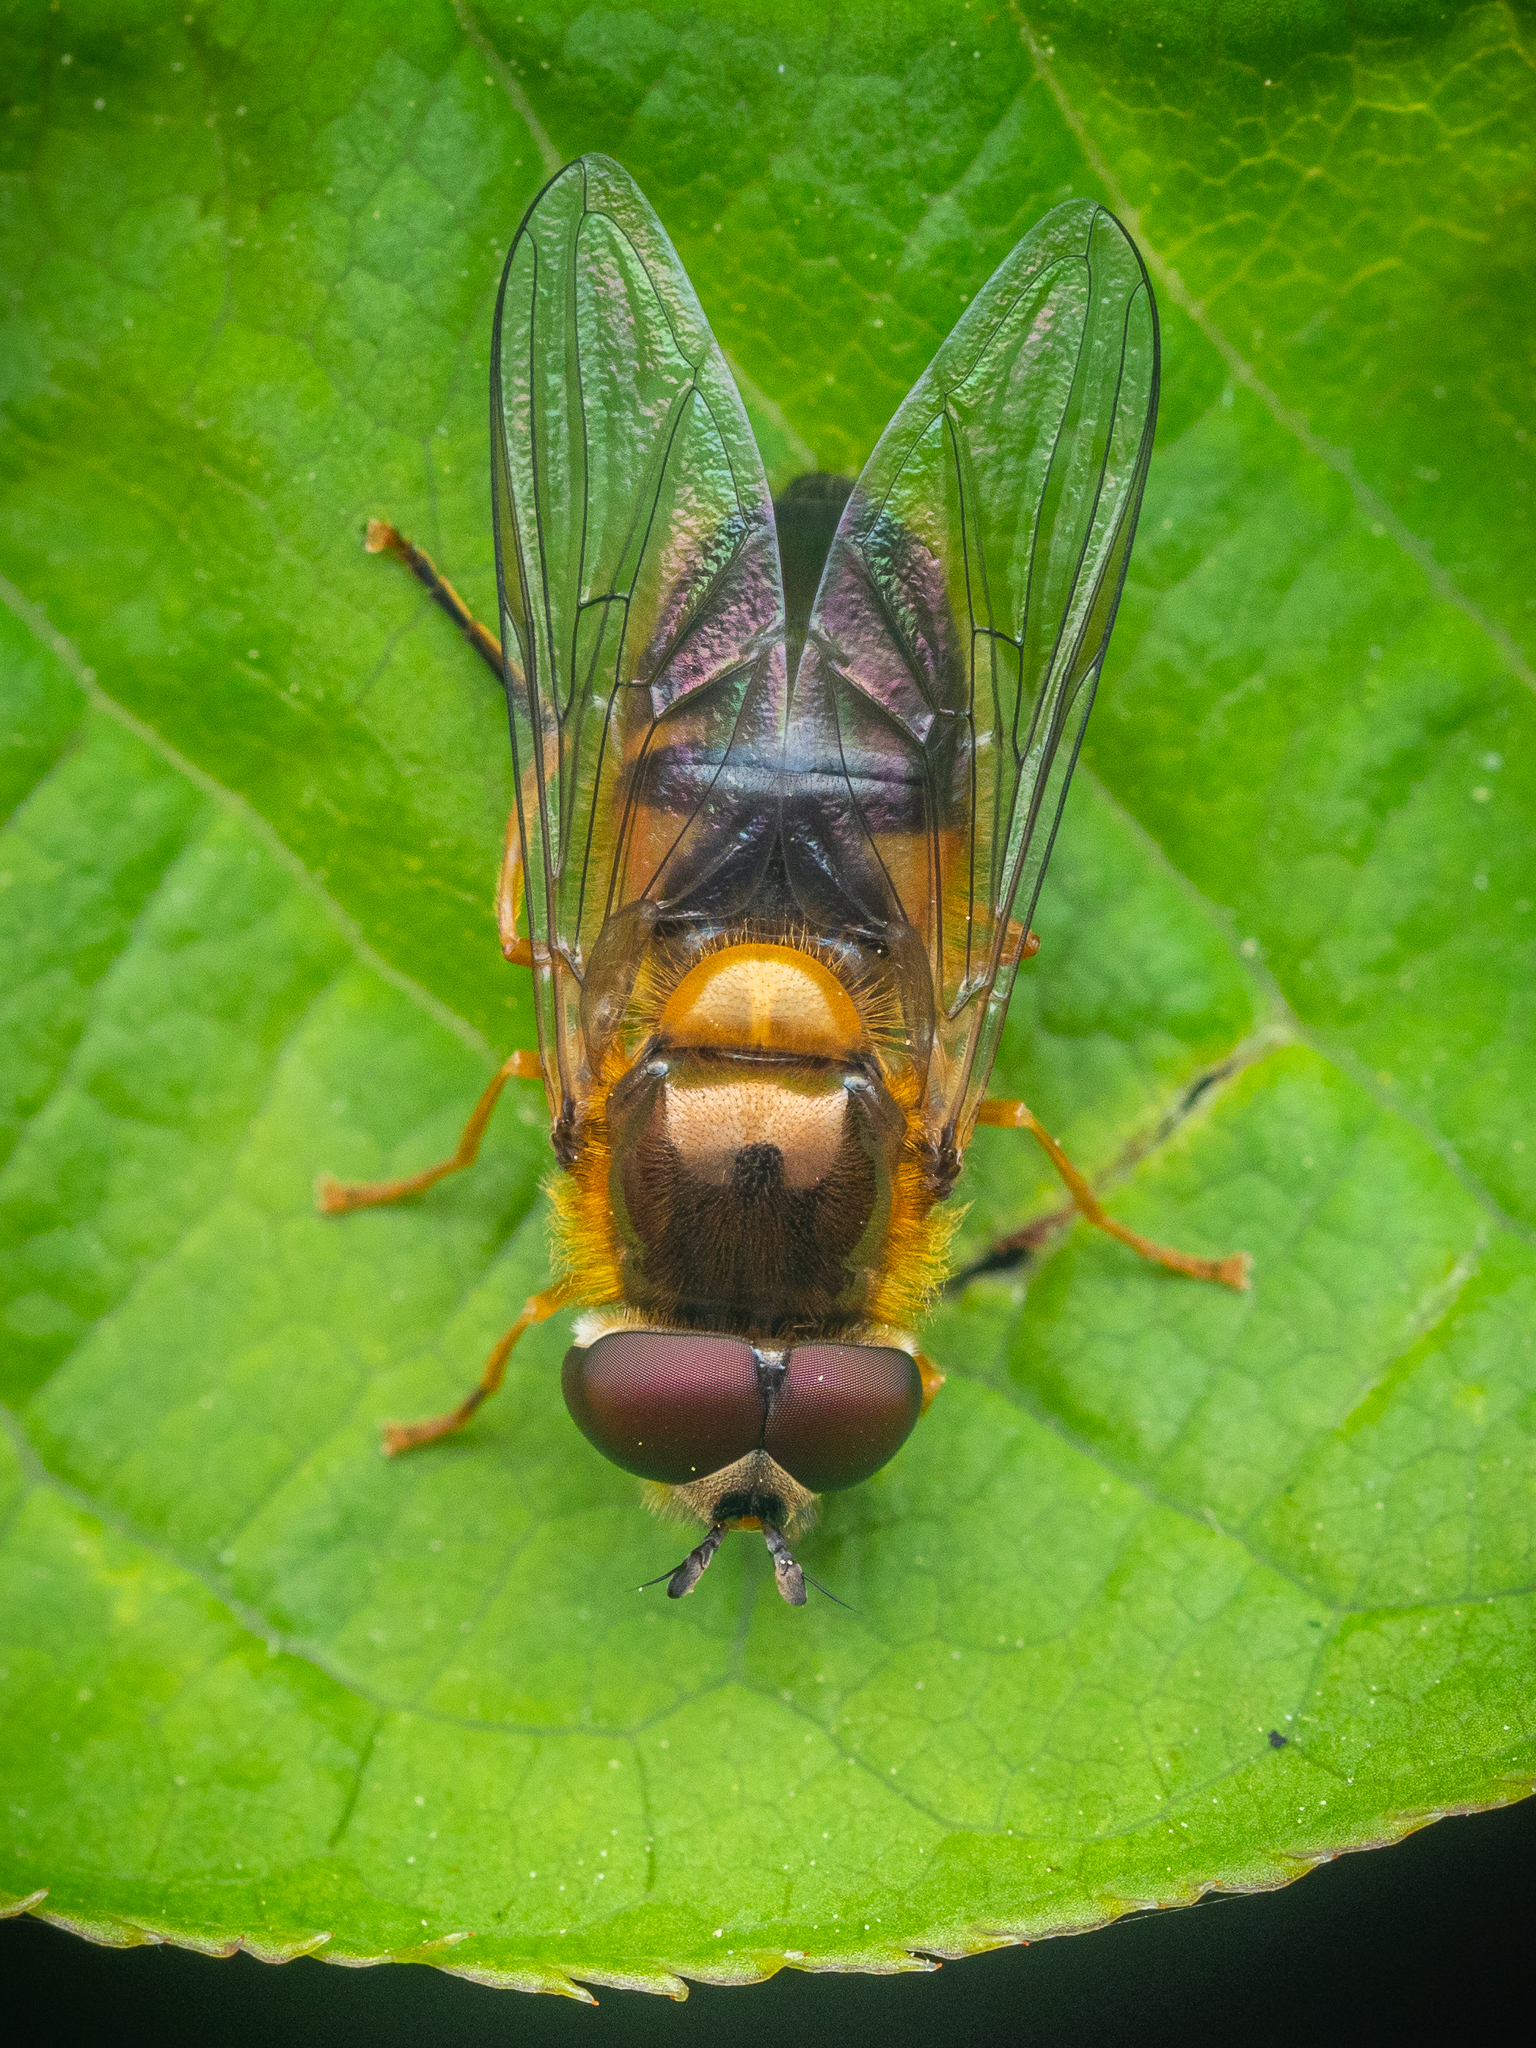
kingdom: Animalia
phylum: Arthropoda
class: Insecta
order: Diptera
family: Syrphidae
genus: Epistrophe
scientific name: Epistrophe eligans
